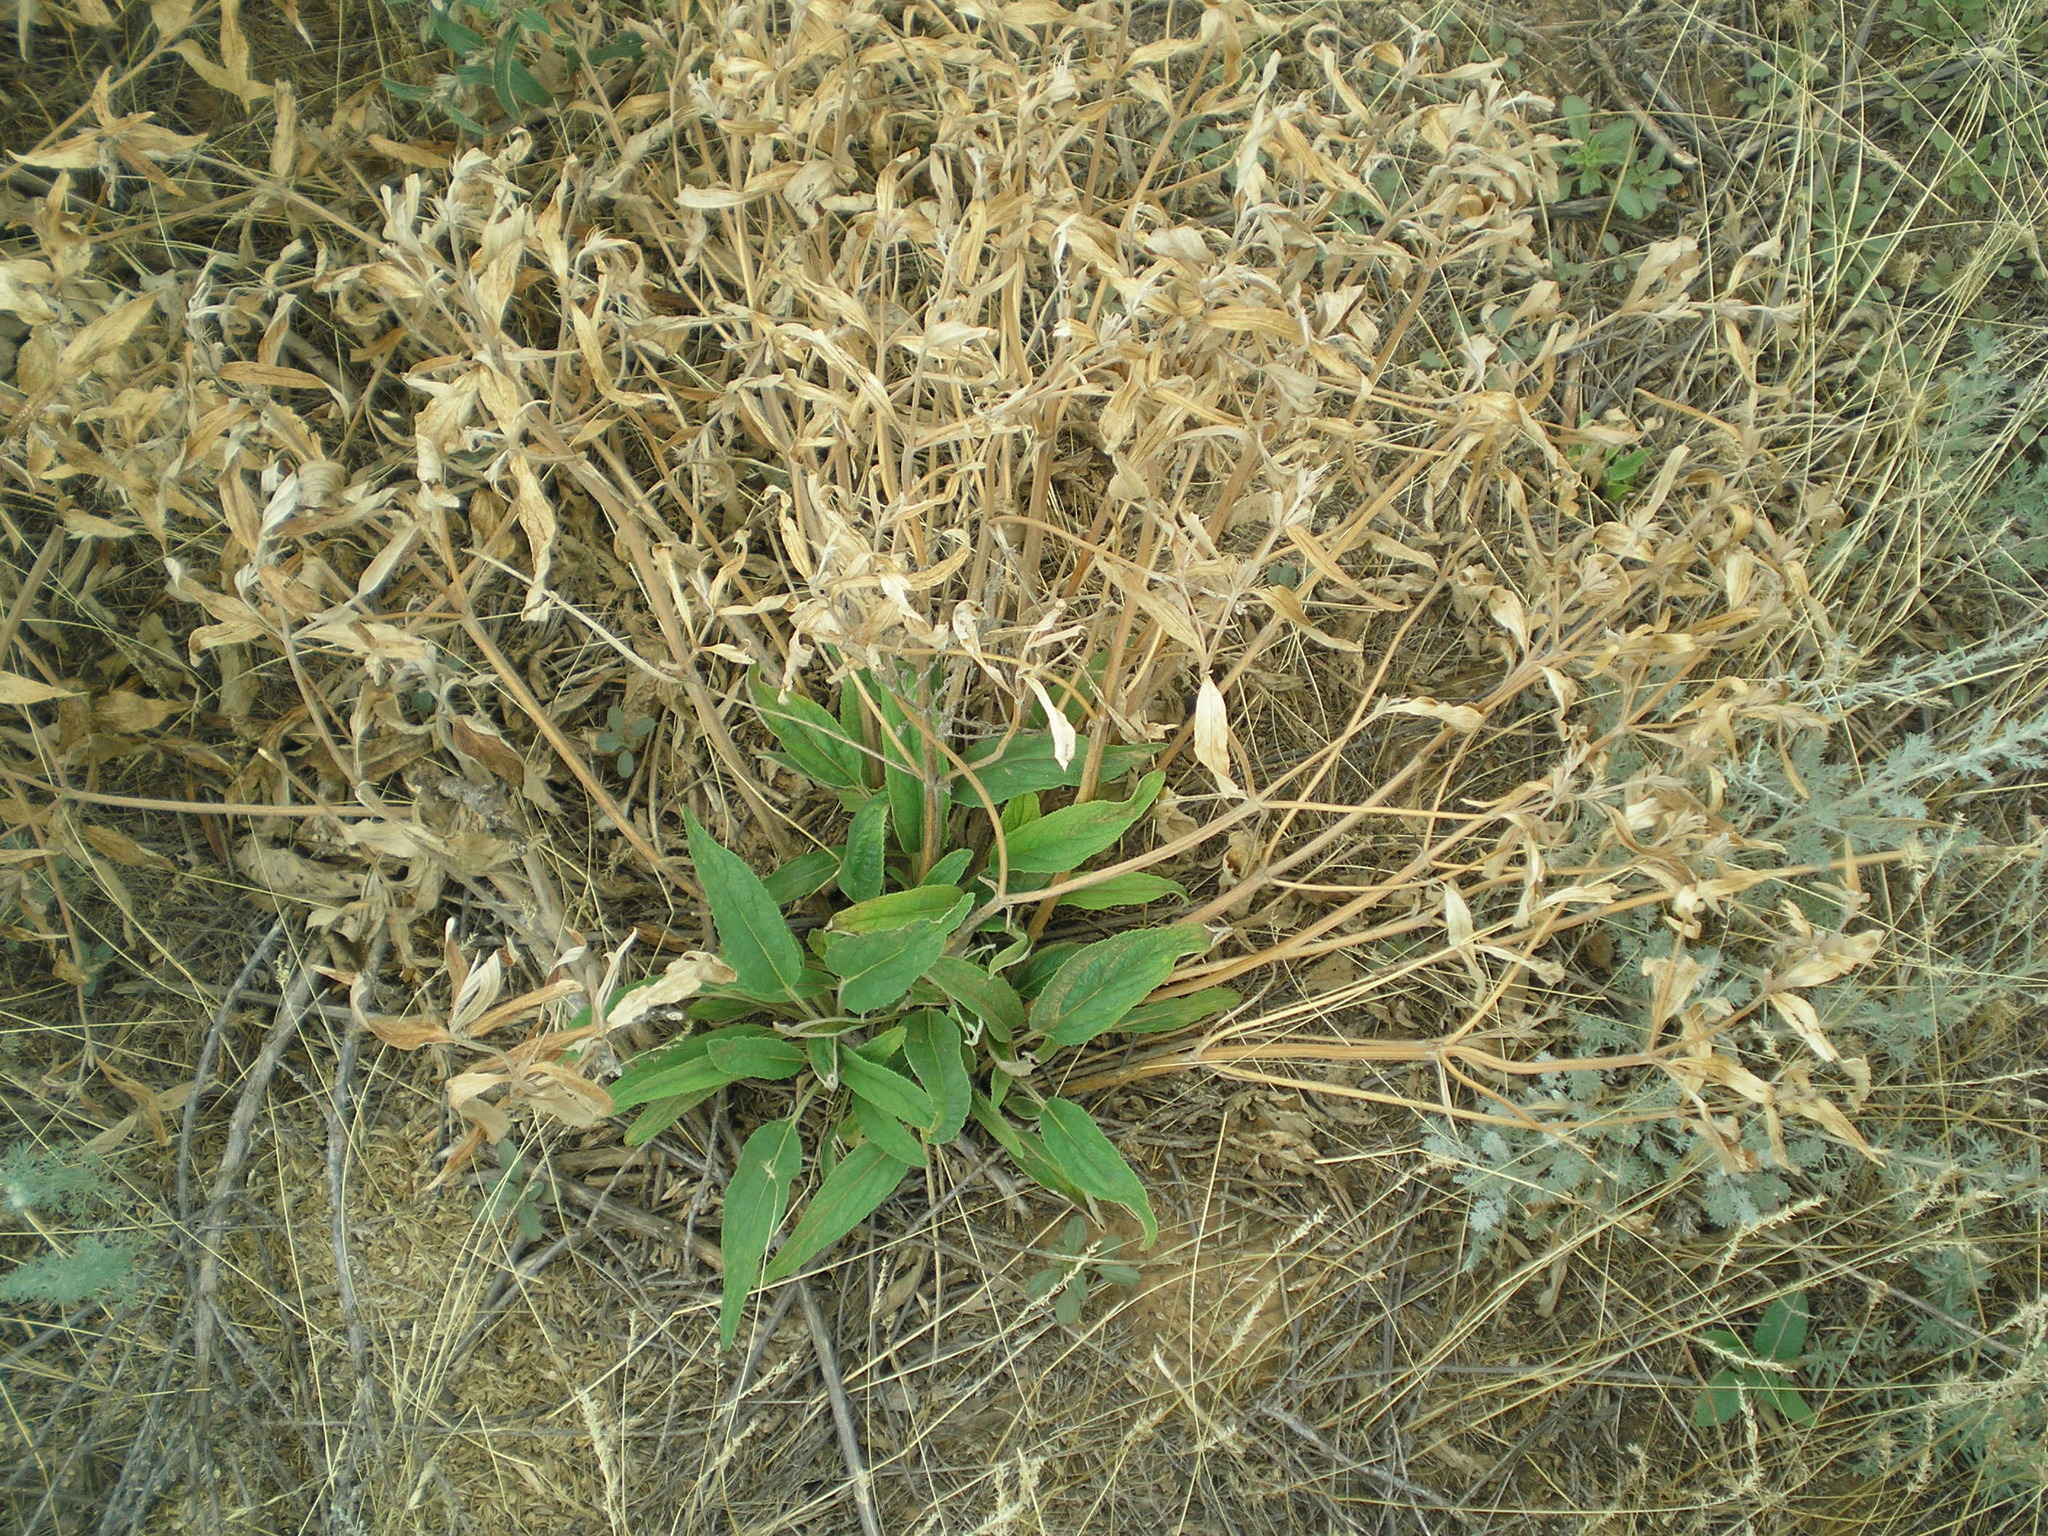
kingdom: Plantae
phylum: Tracheophyta
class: Magnoliopsida
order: Lamiales
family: Lamiaceae
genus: Phlomis
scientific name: Phlomis herba-venti
